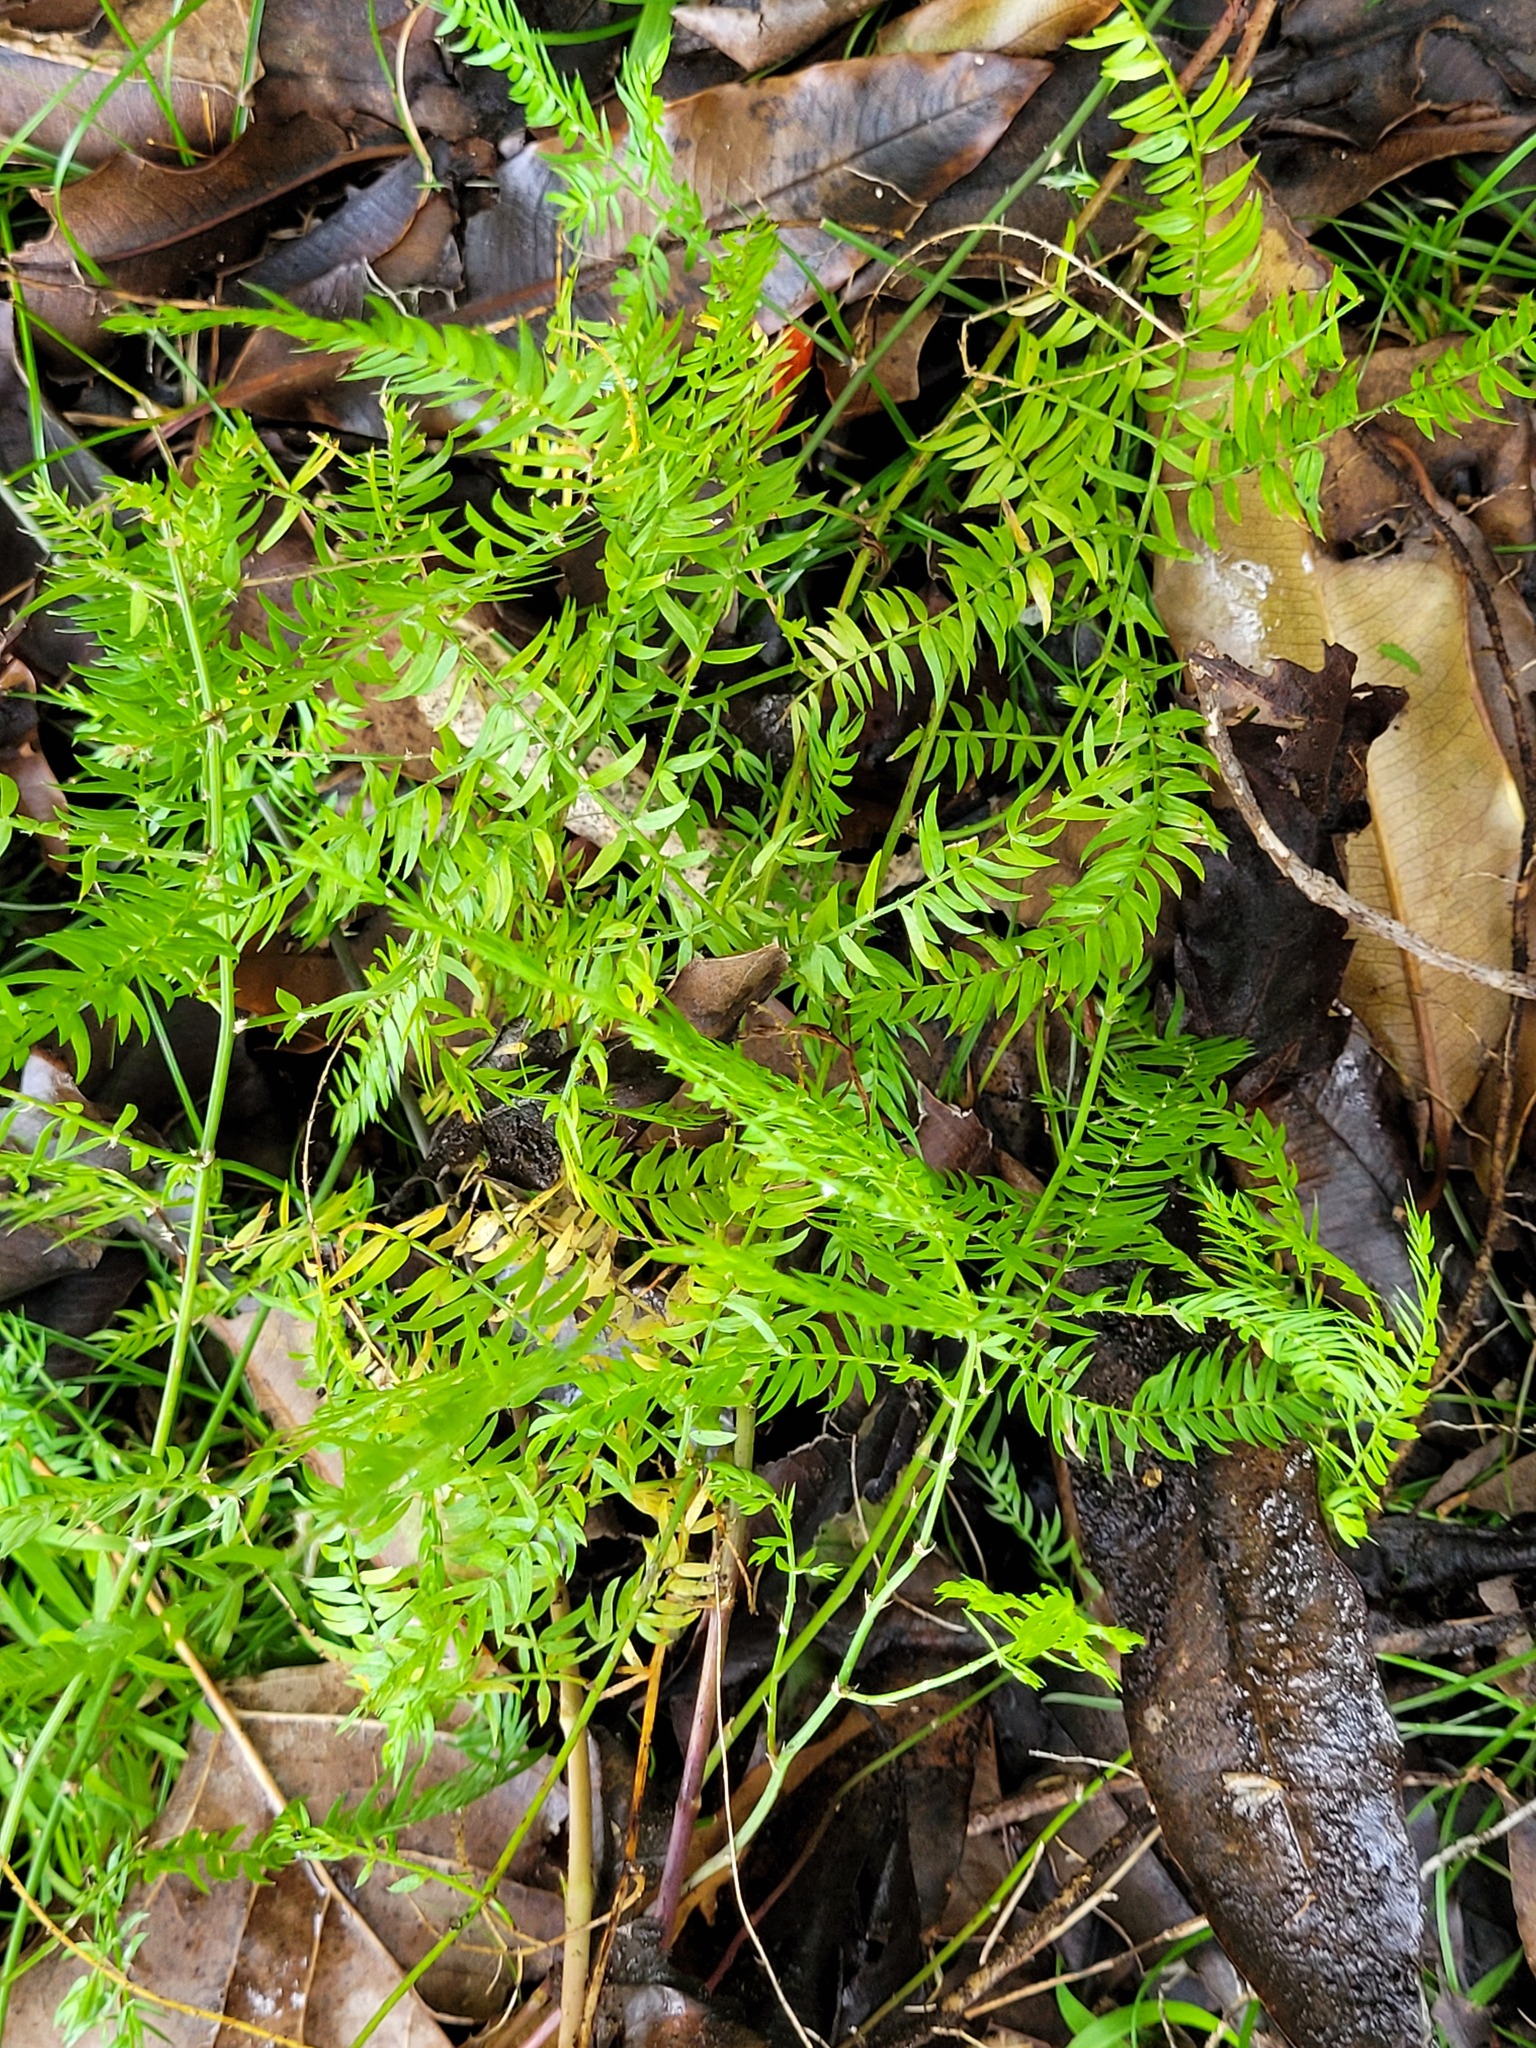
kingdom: Plantae
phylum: Tracheophyta
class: Liliopsida
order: Asparagales
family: Asparagaceae
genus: Asparagus
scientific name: Asparagus scandens
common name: Asparagus-fern
